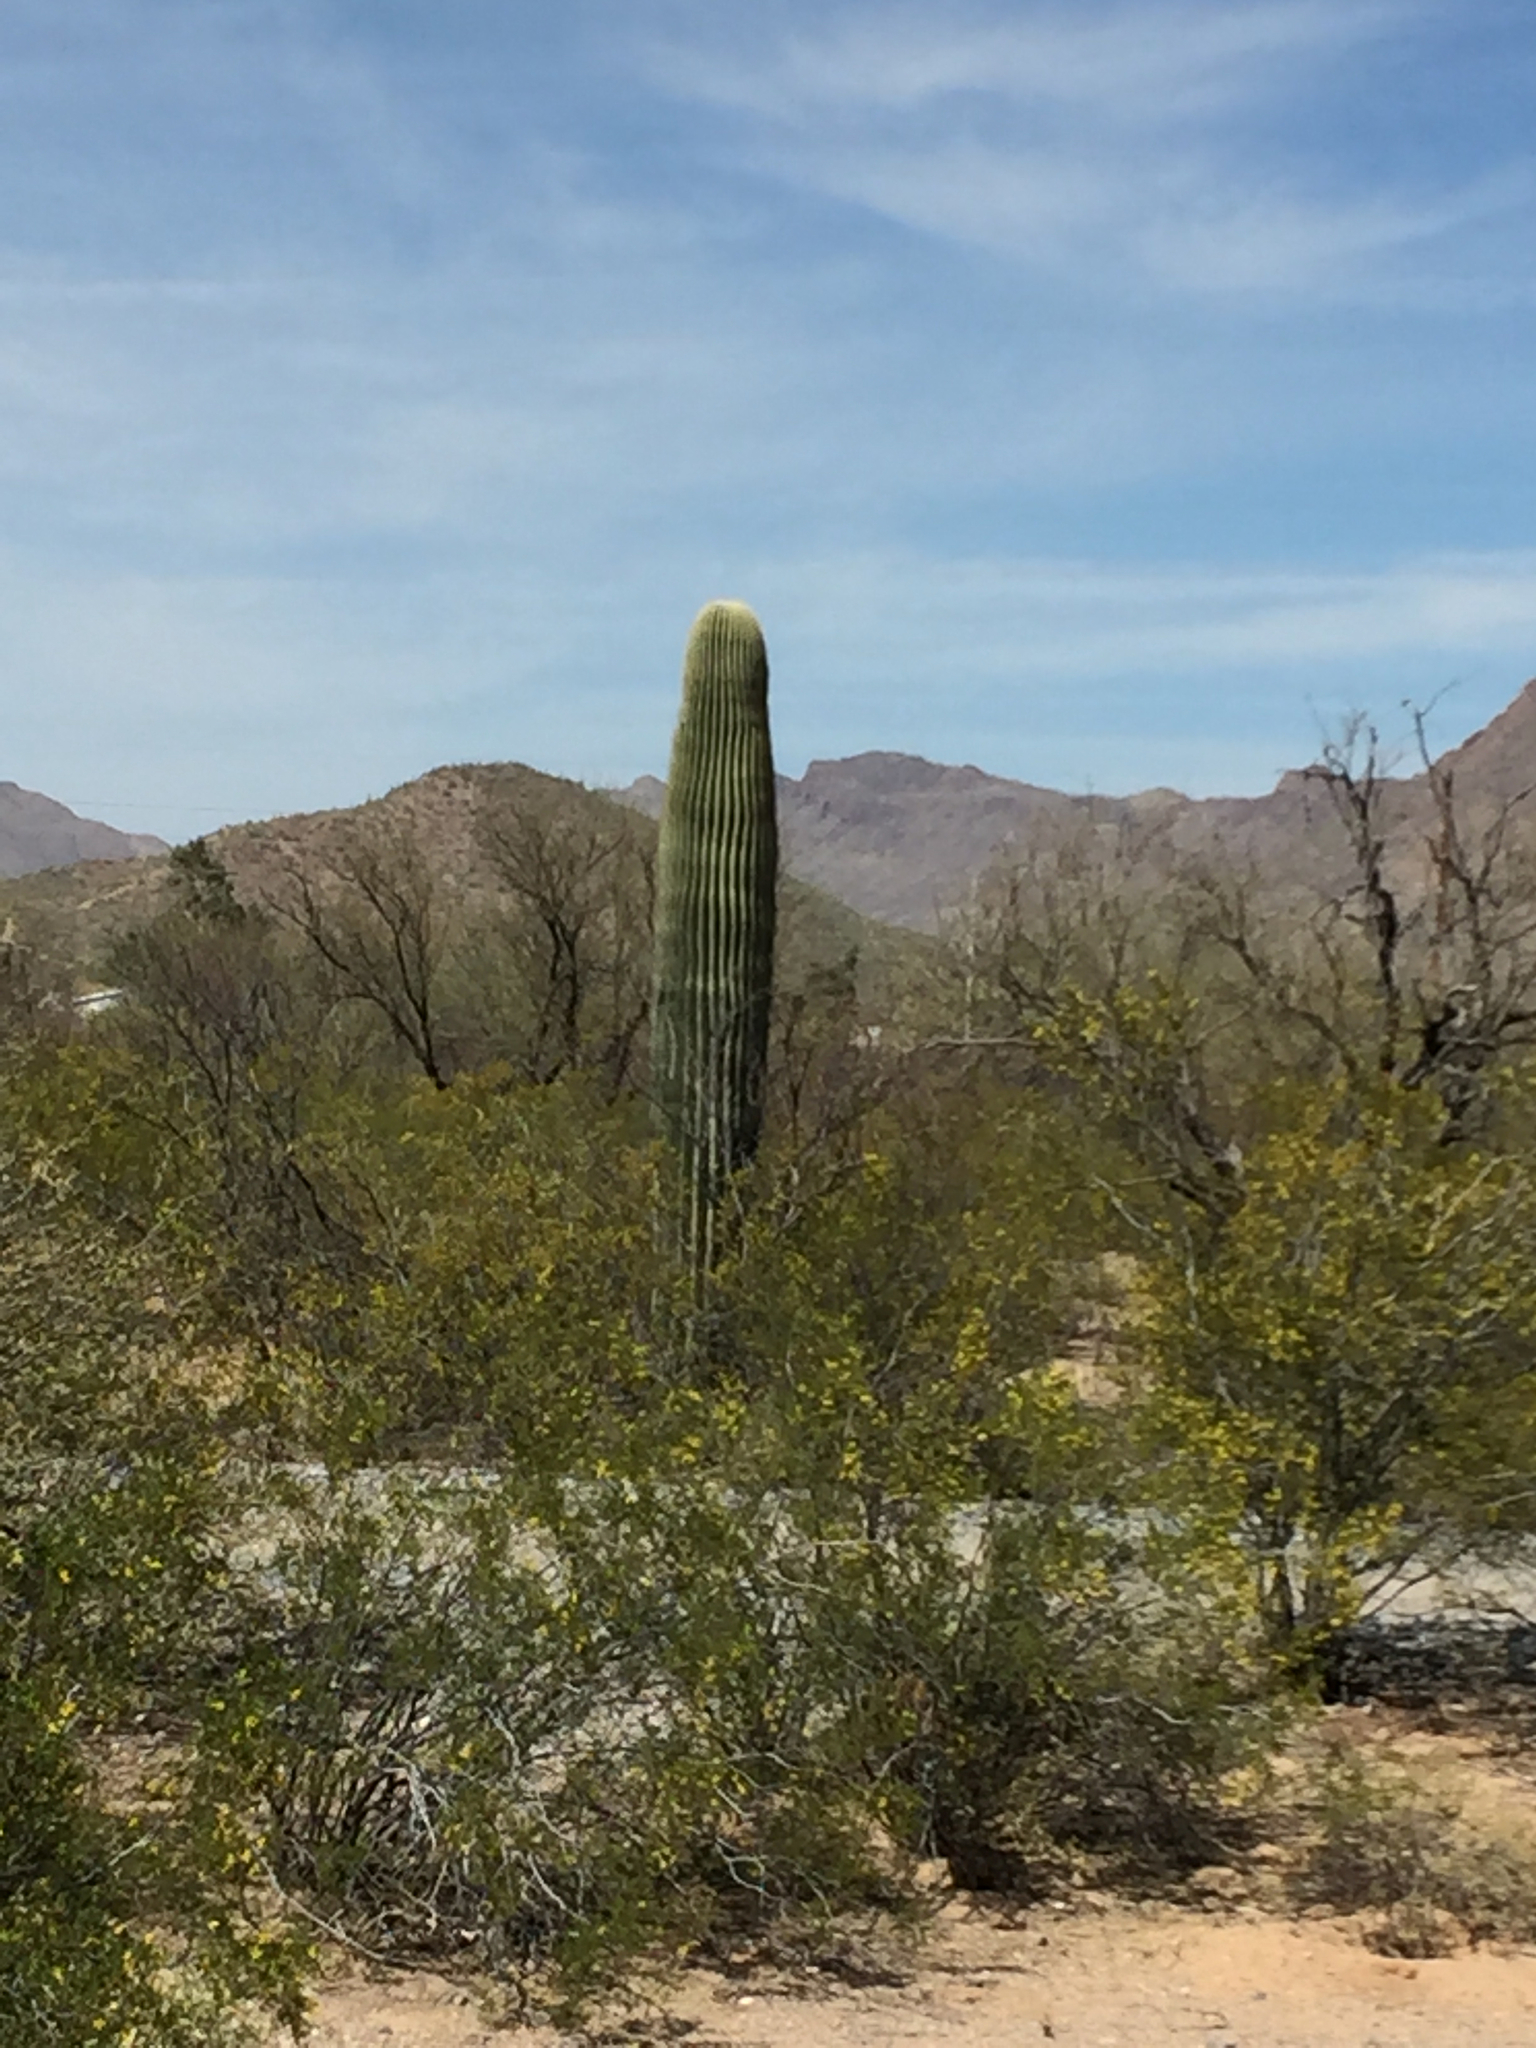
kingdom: Plantae
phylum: Tracheophyta
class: Magnoliopsida
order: Caryophyllales
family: Cactaceae
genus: Carnegiea
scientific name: Carnegiea gigantea
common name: Saguaro
